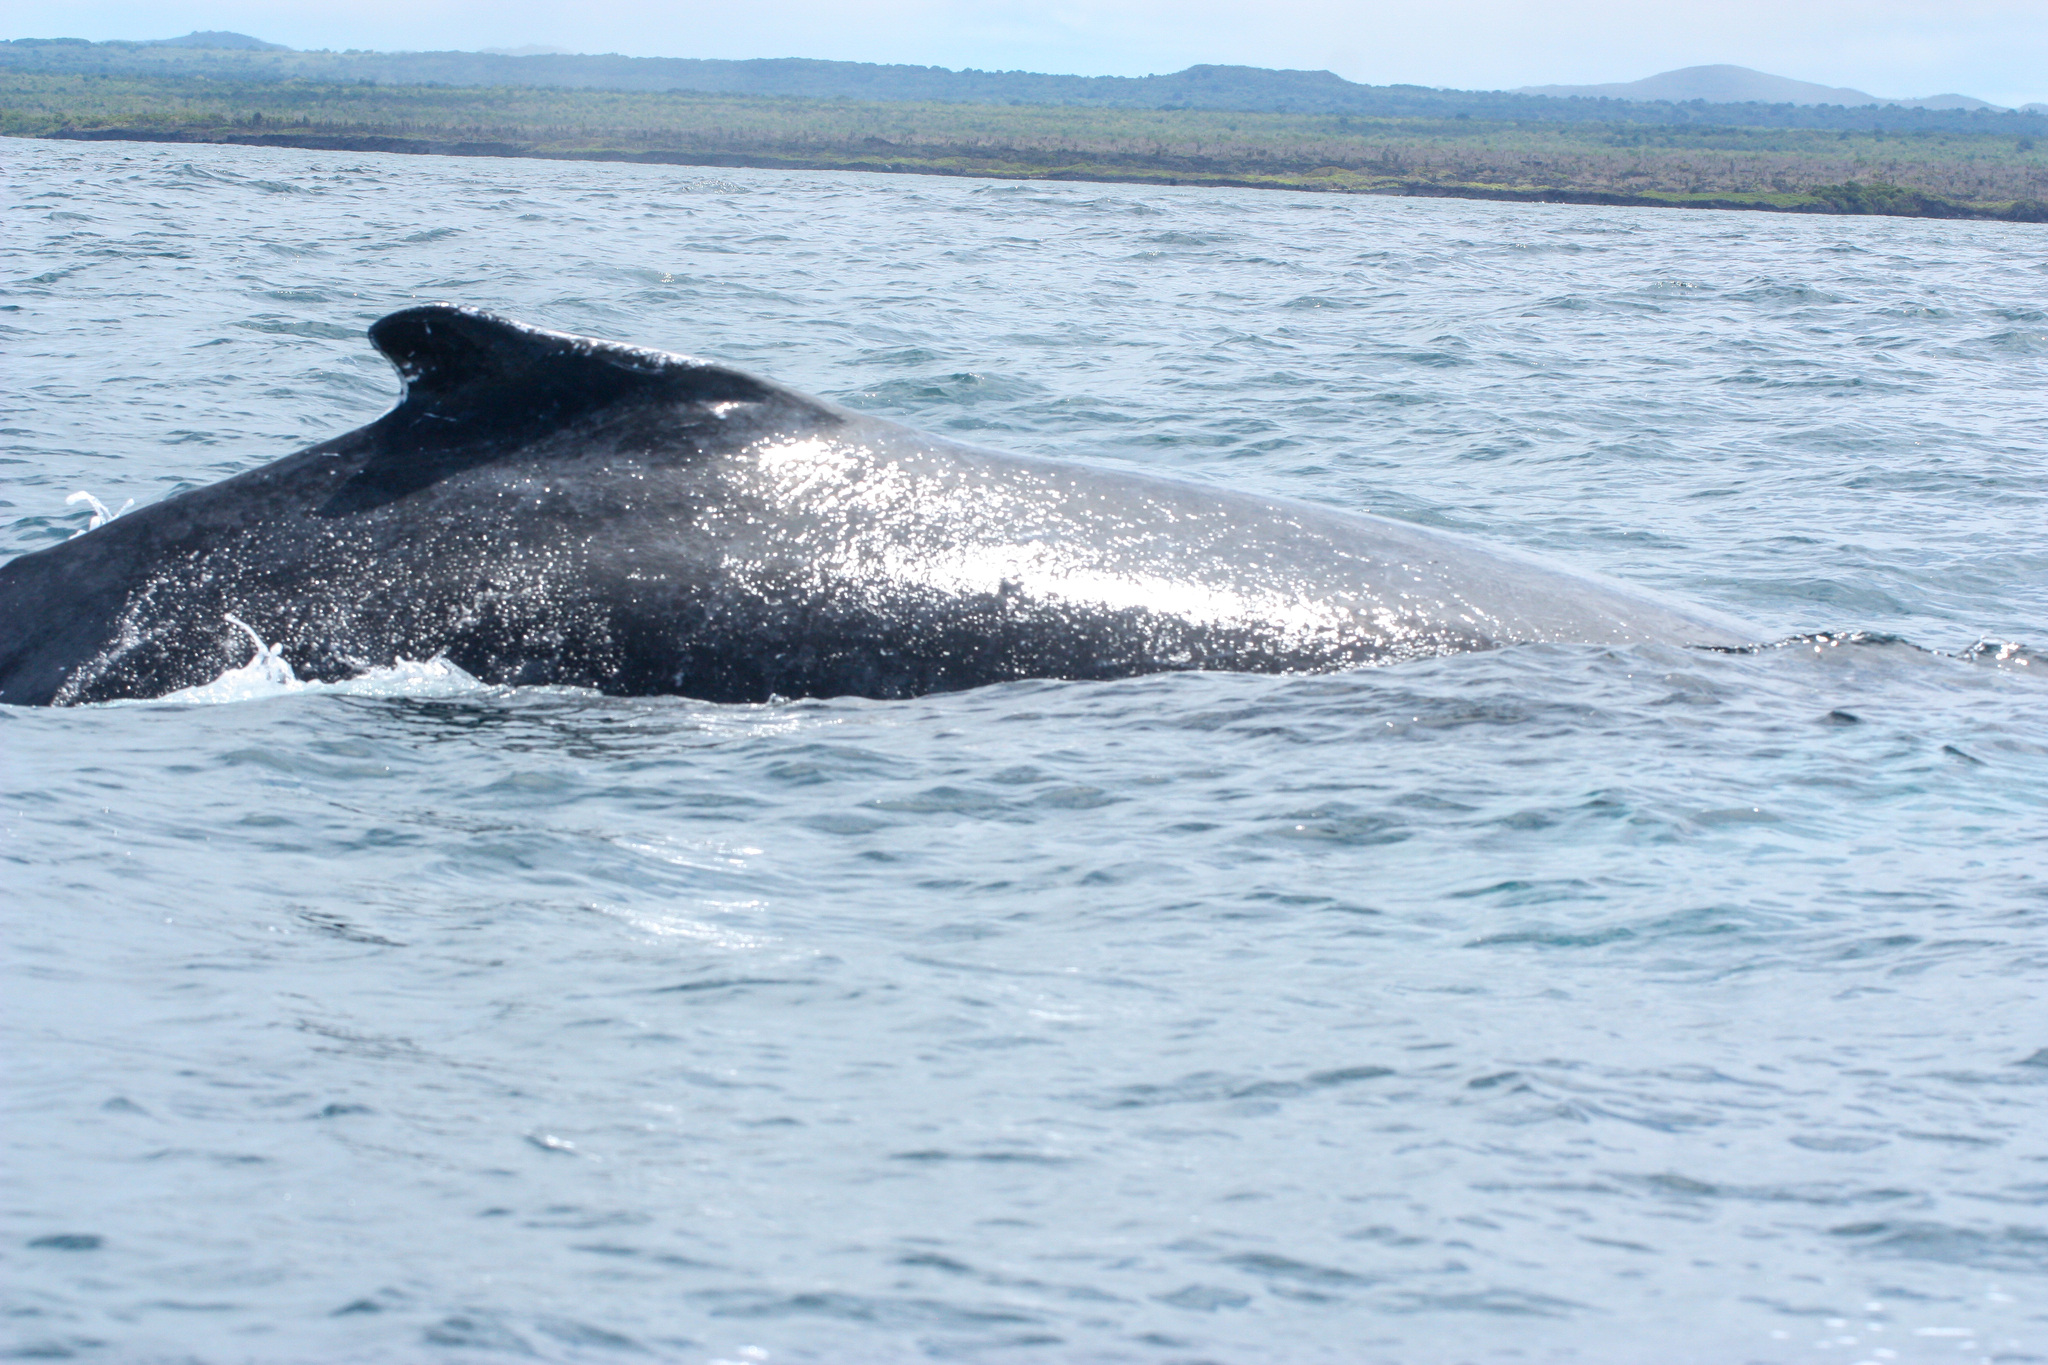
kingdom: Animalia
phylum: Chordata
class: Mammalia
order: Cetacea
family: Balaenopteridae
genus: Megaptera
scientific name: Megaptera novaeangliae
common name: Humpback whale
